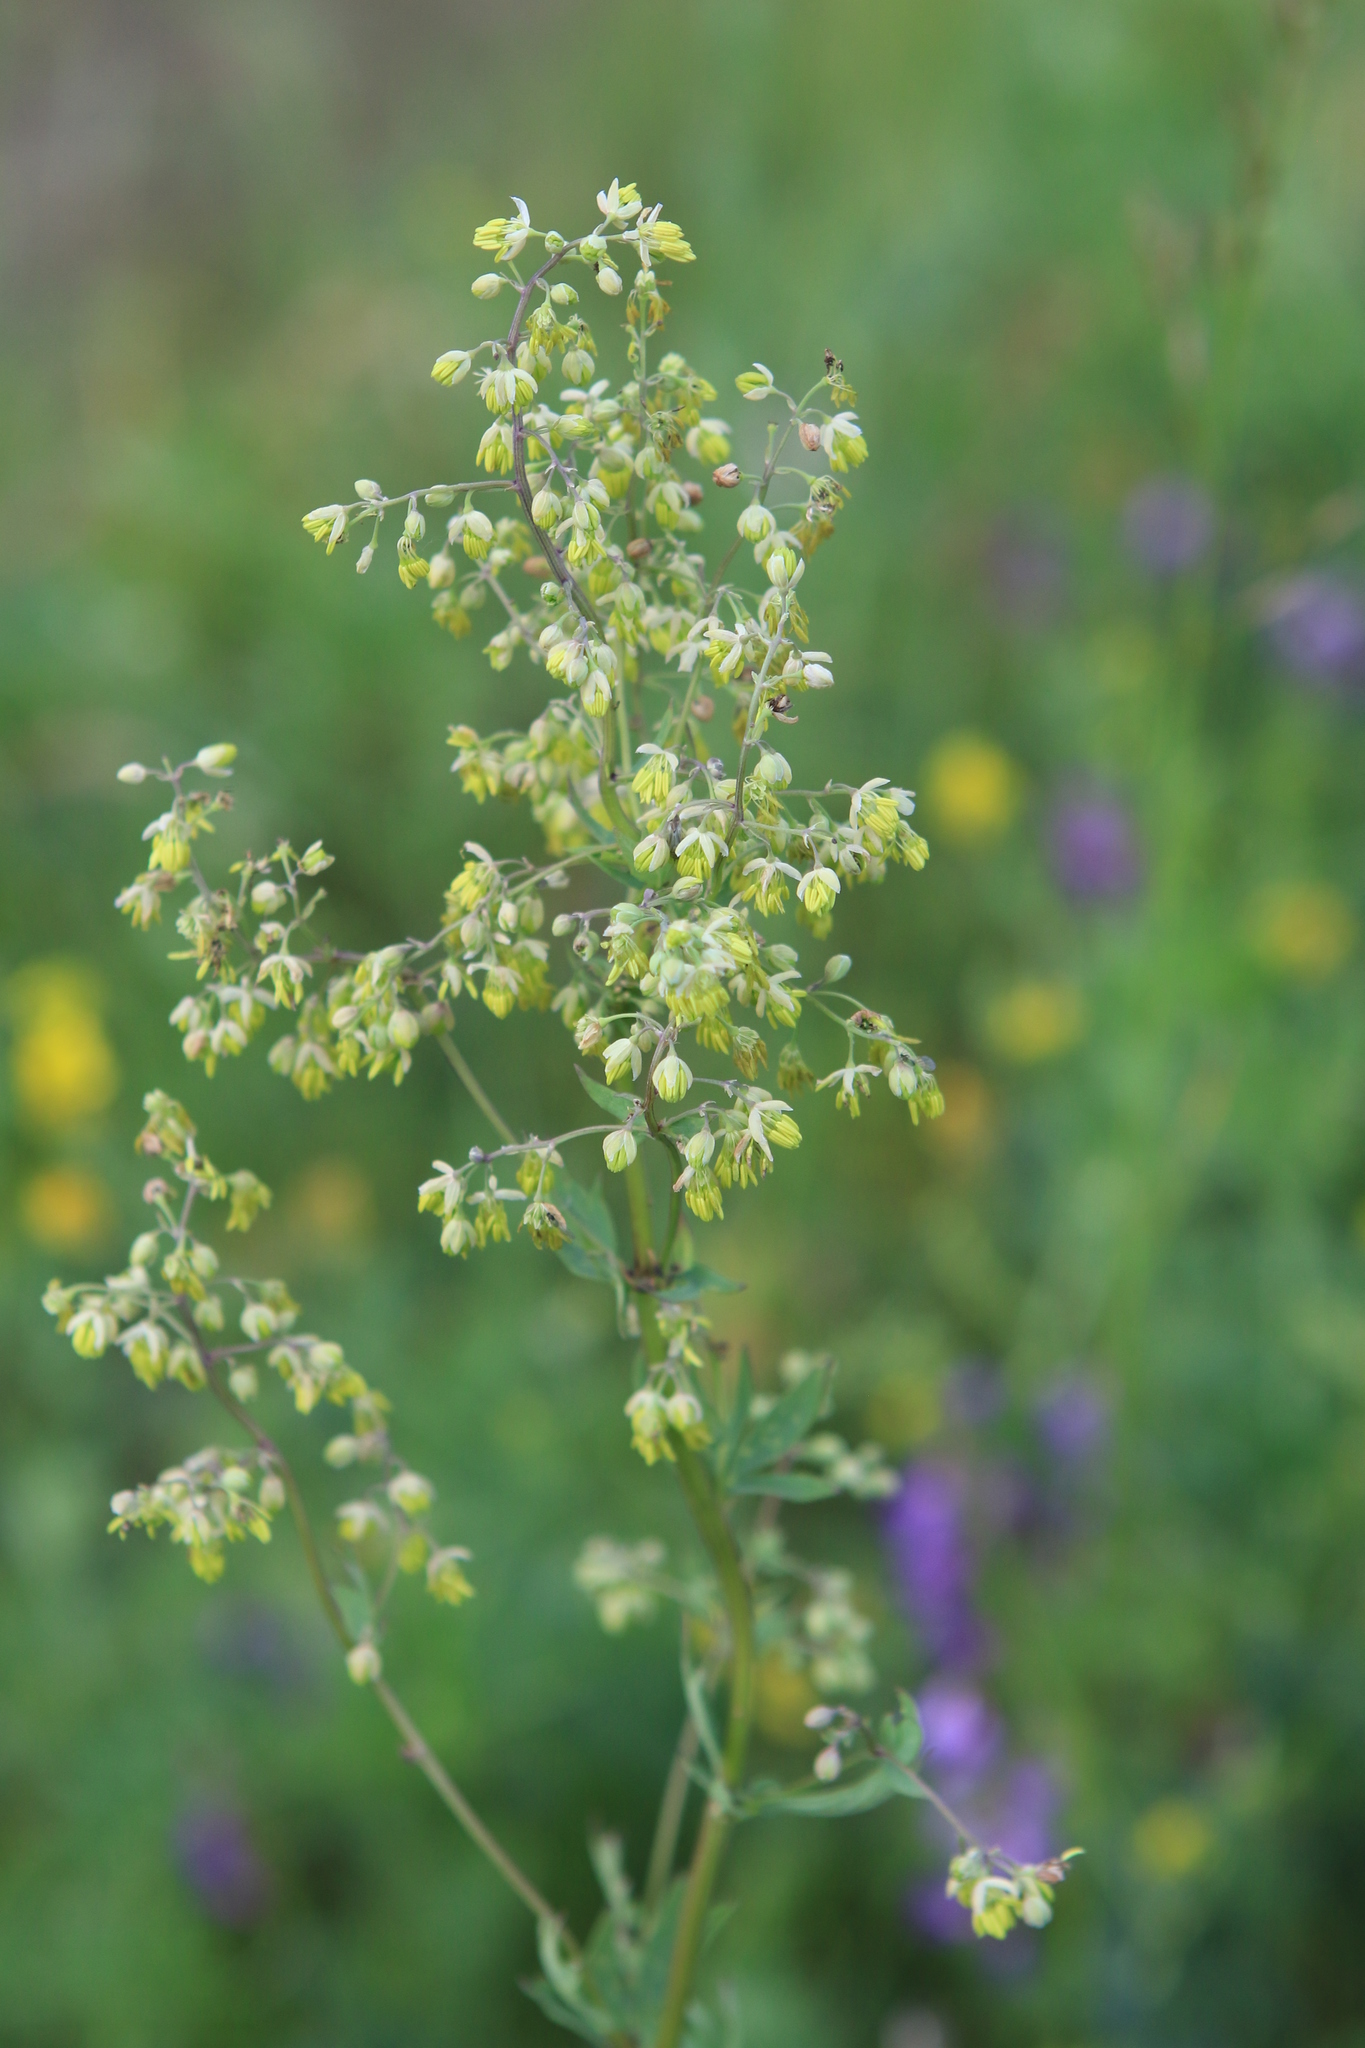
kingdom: Plantae
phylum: Tracheophyta
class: Magnoliopsida
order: Ranunculales
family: Ranunculaceae
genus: Thalictrum
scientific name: Thalictrum simplex
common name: Small meadow-rue
